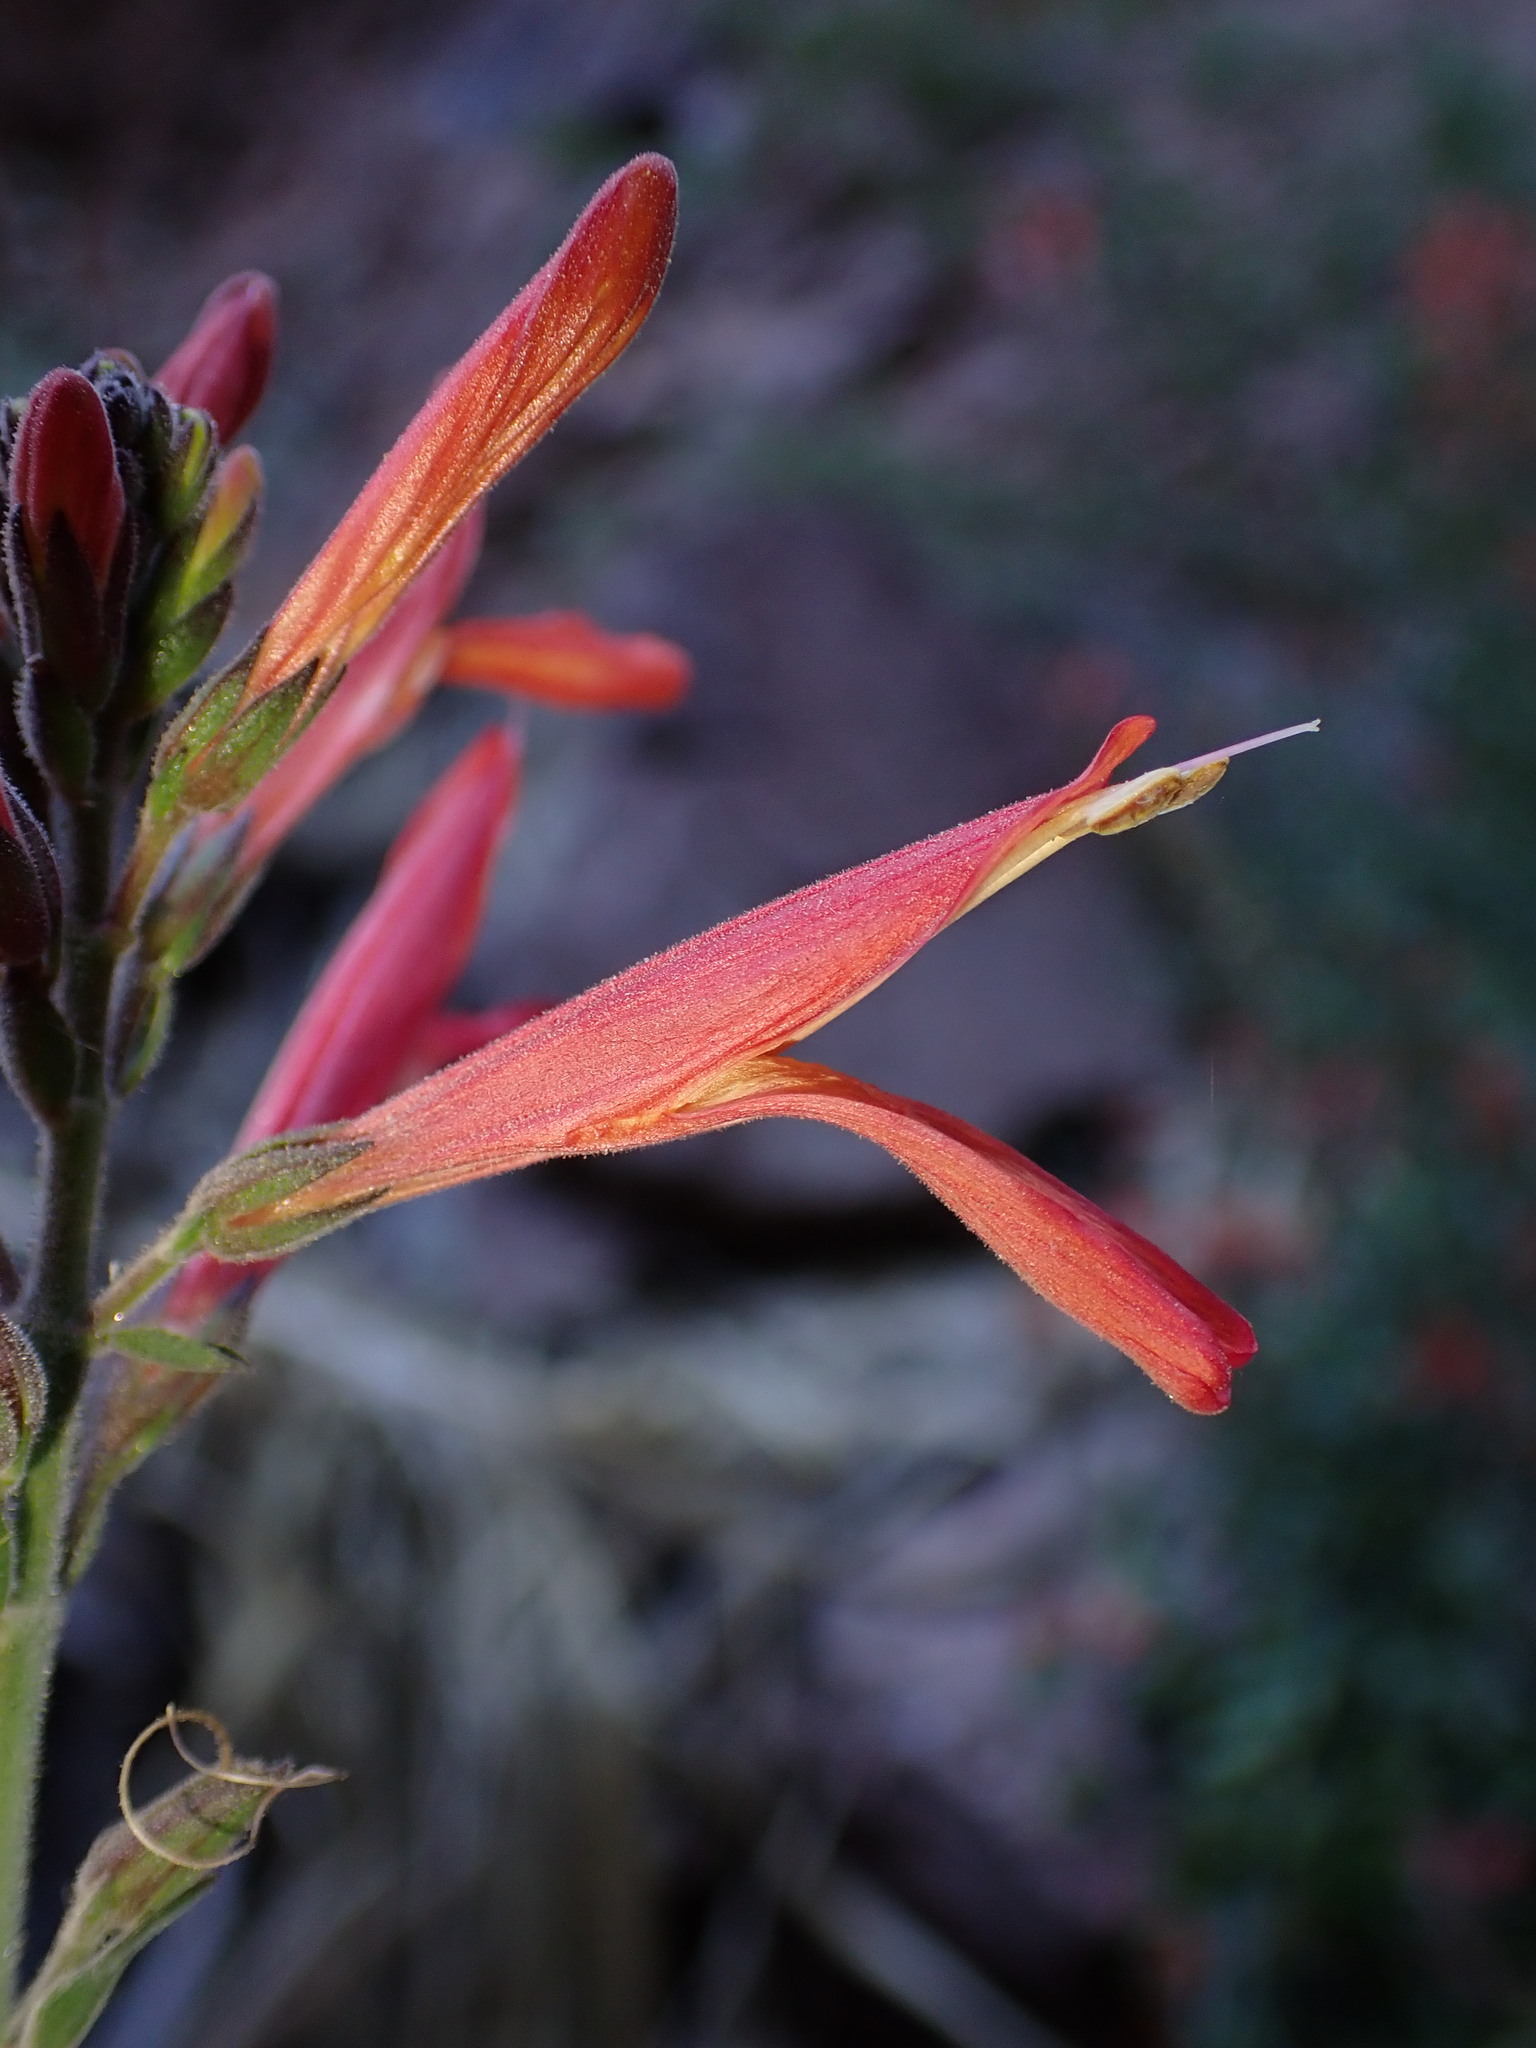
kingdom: Plantae
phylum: Tracheophyta
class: Magnoliopsida
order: Lamiales
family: Acanthaceae
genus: Justicia
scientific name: Justicia californica
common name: Chuparosa-honeysuckle
